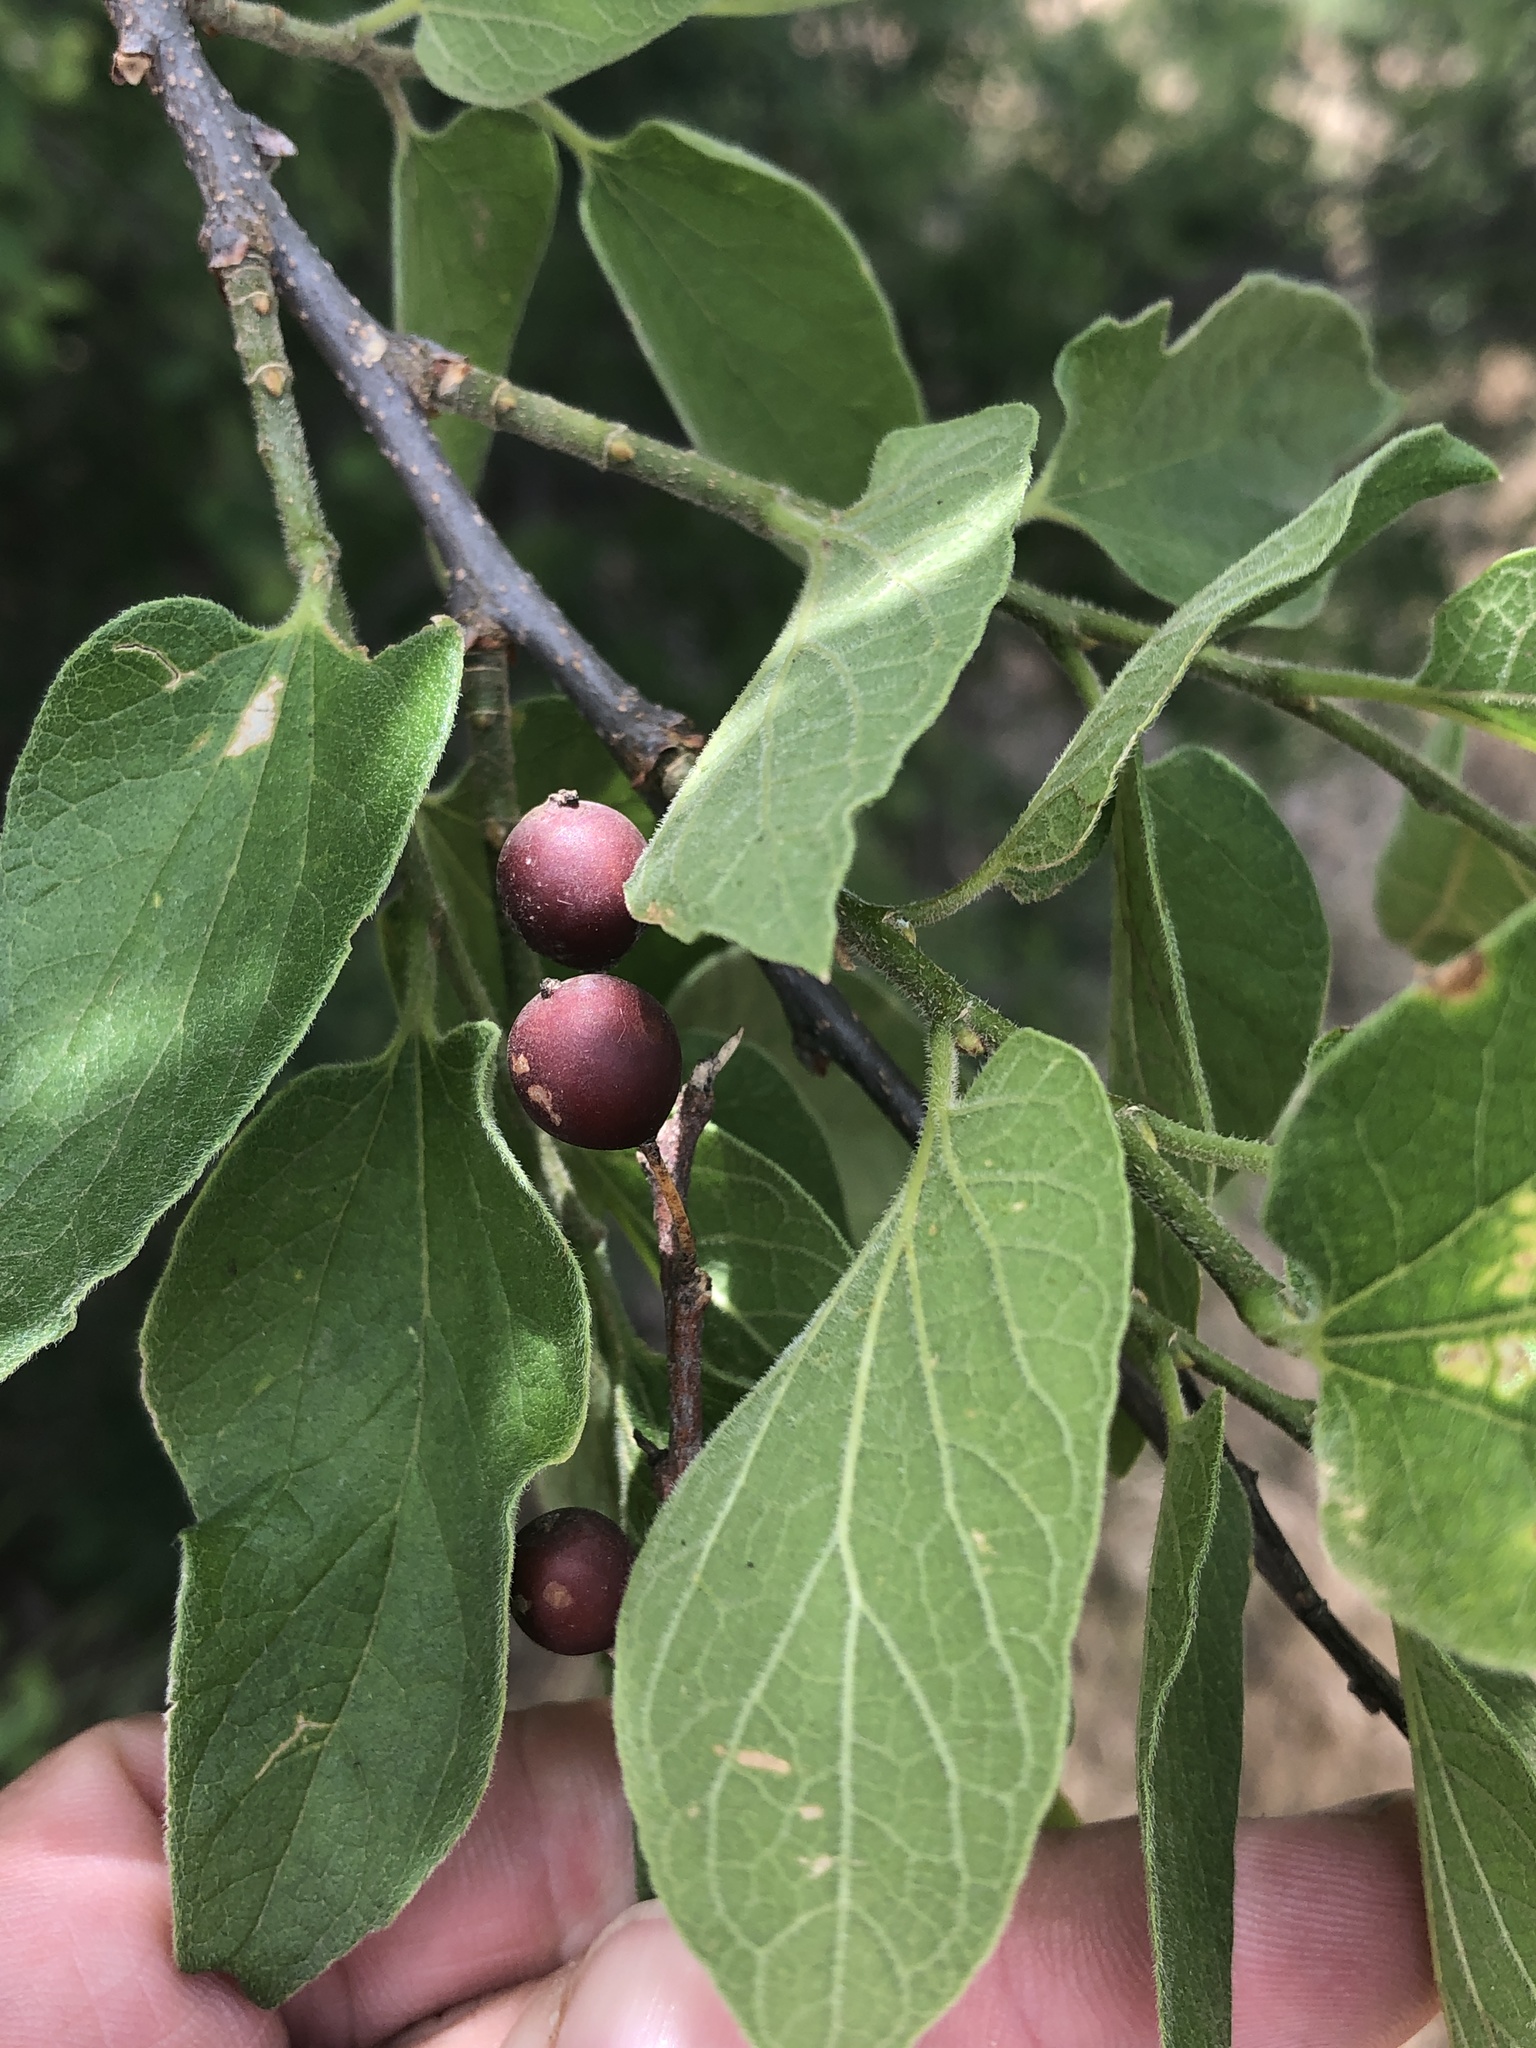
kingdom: Plantae
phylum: Tracheophyta
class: Magnoliopsida
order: Rosales
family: Cannabaceae
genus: Celtis
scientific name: Celtis reticulata
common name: Netleaf hackberry
